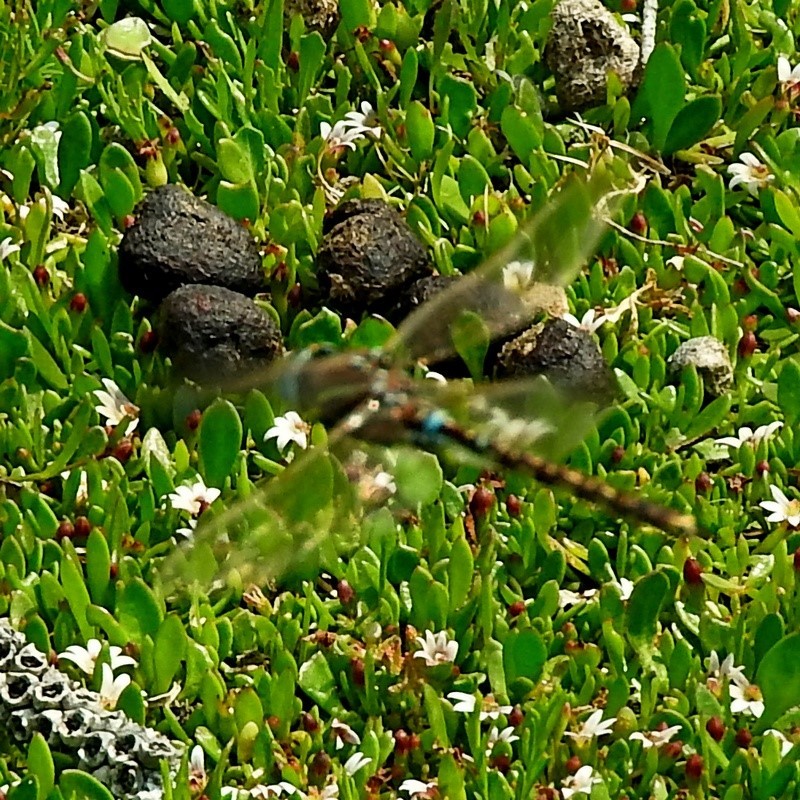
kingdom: Animalia
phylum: Arthropoda
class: Insecta
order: Odonata
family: Aeshnidae
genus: Aeshna
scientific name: Aeshna brevistyla
